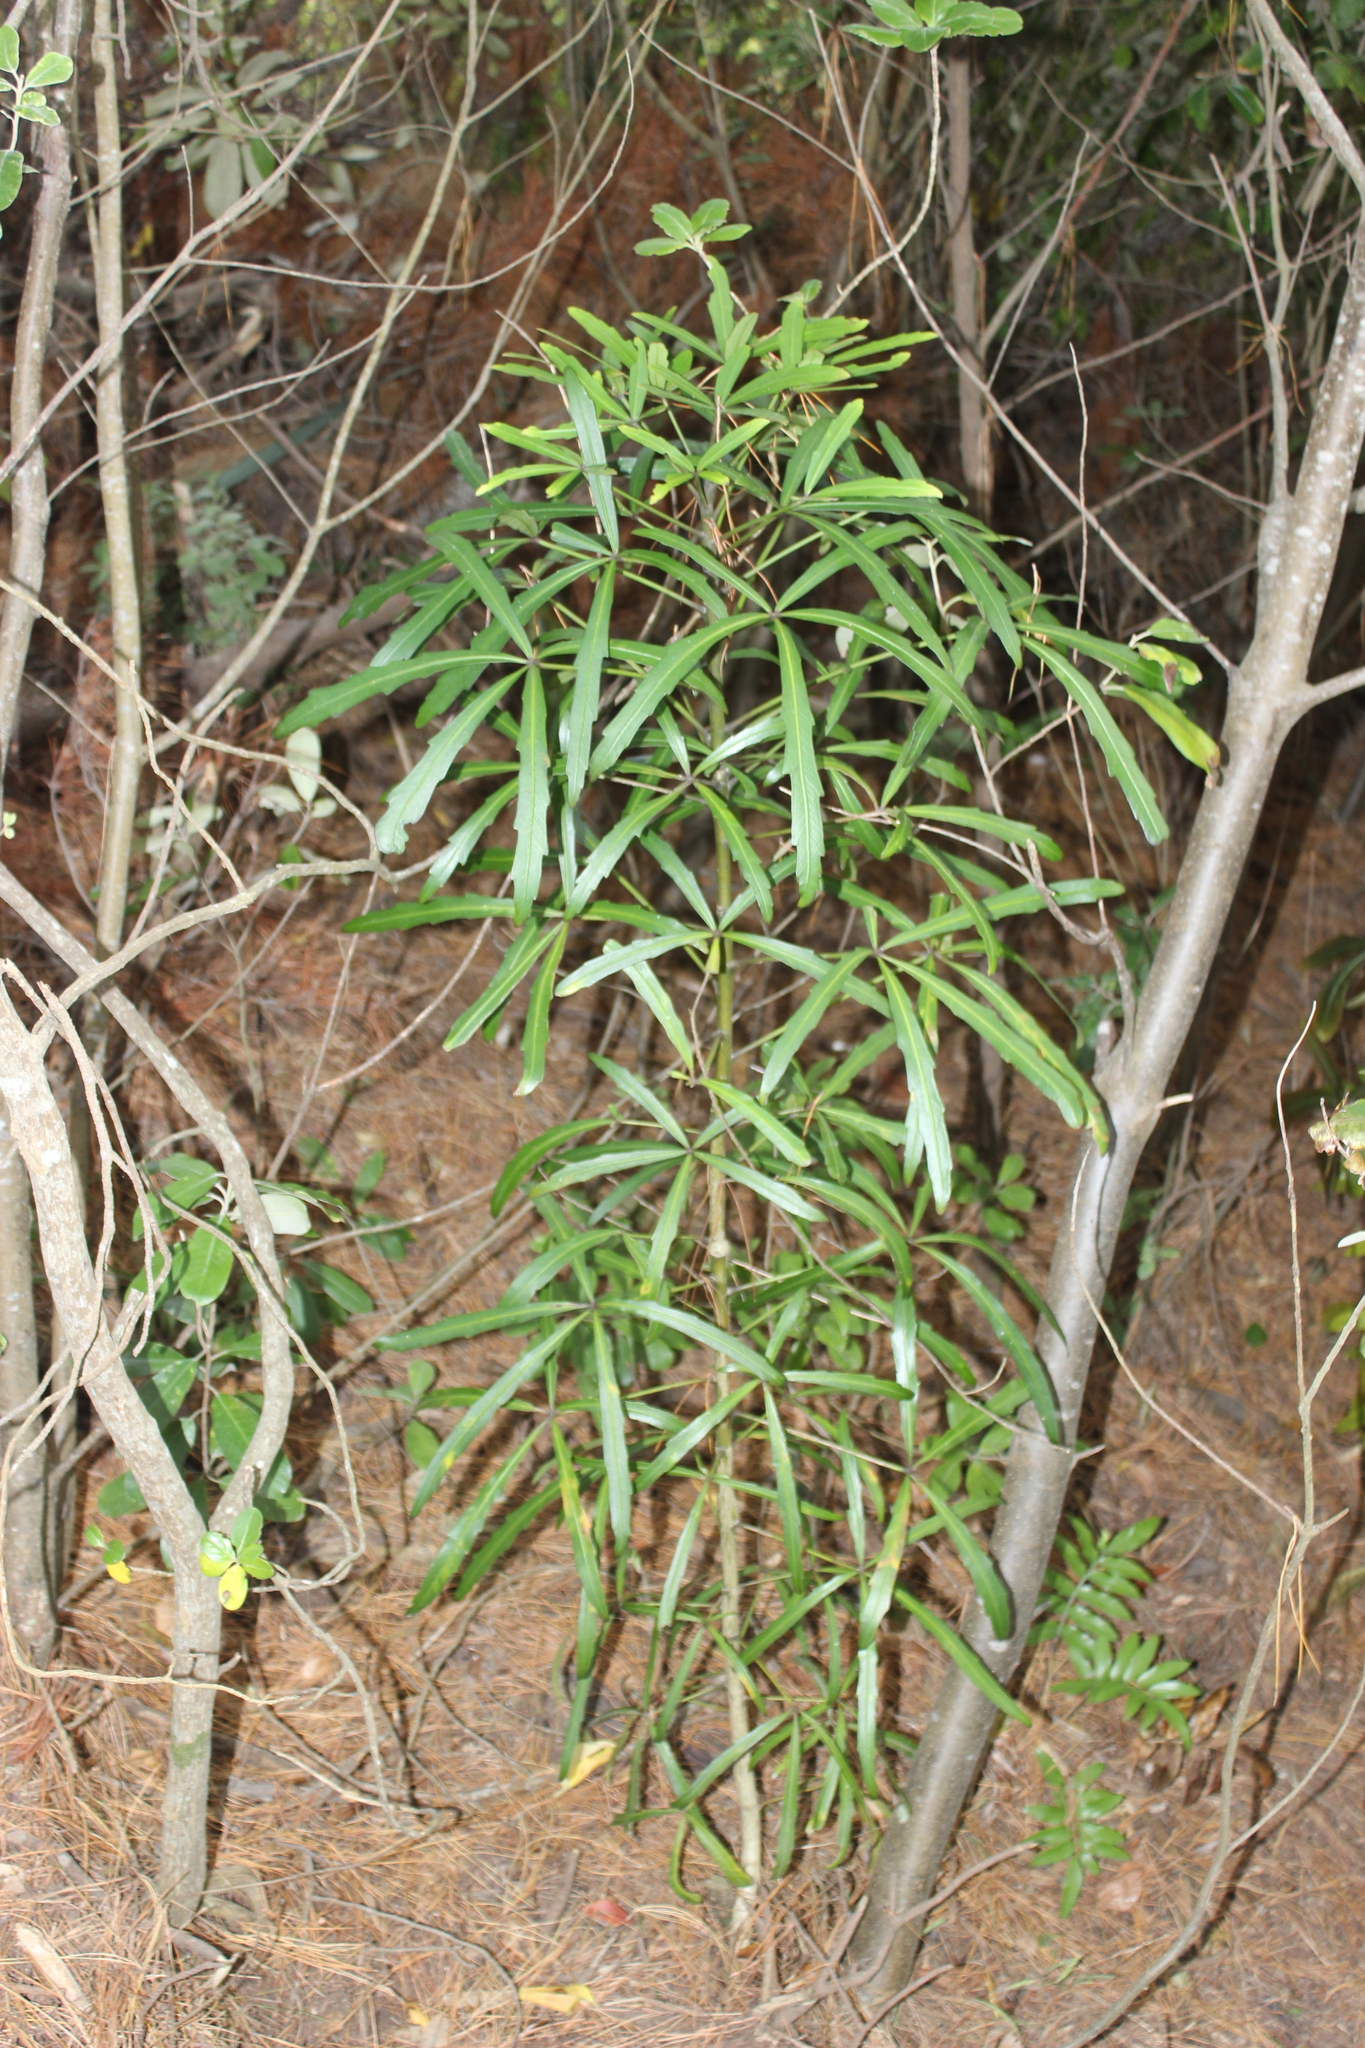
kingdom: Plantae
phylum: Tracheophyta
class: Magnoliopsida
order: Apiales
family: Araliaceae
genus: Pseudopanax
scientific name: Pseudopanax
